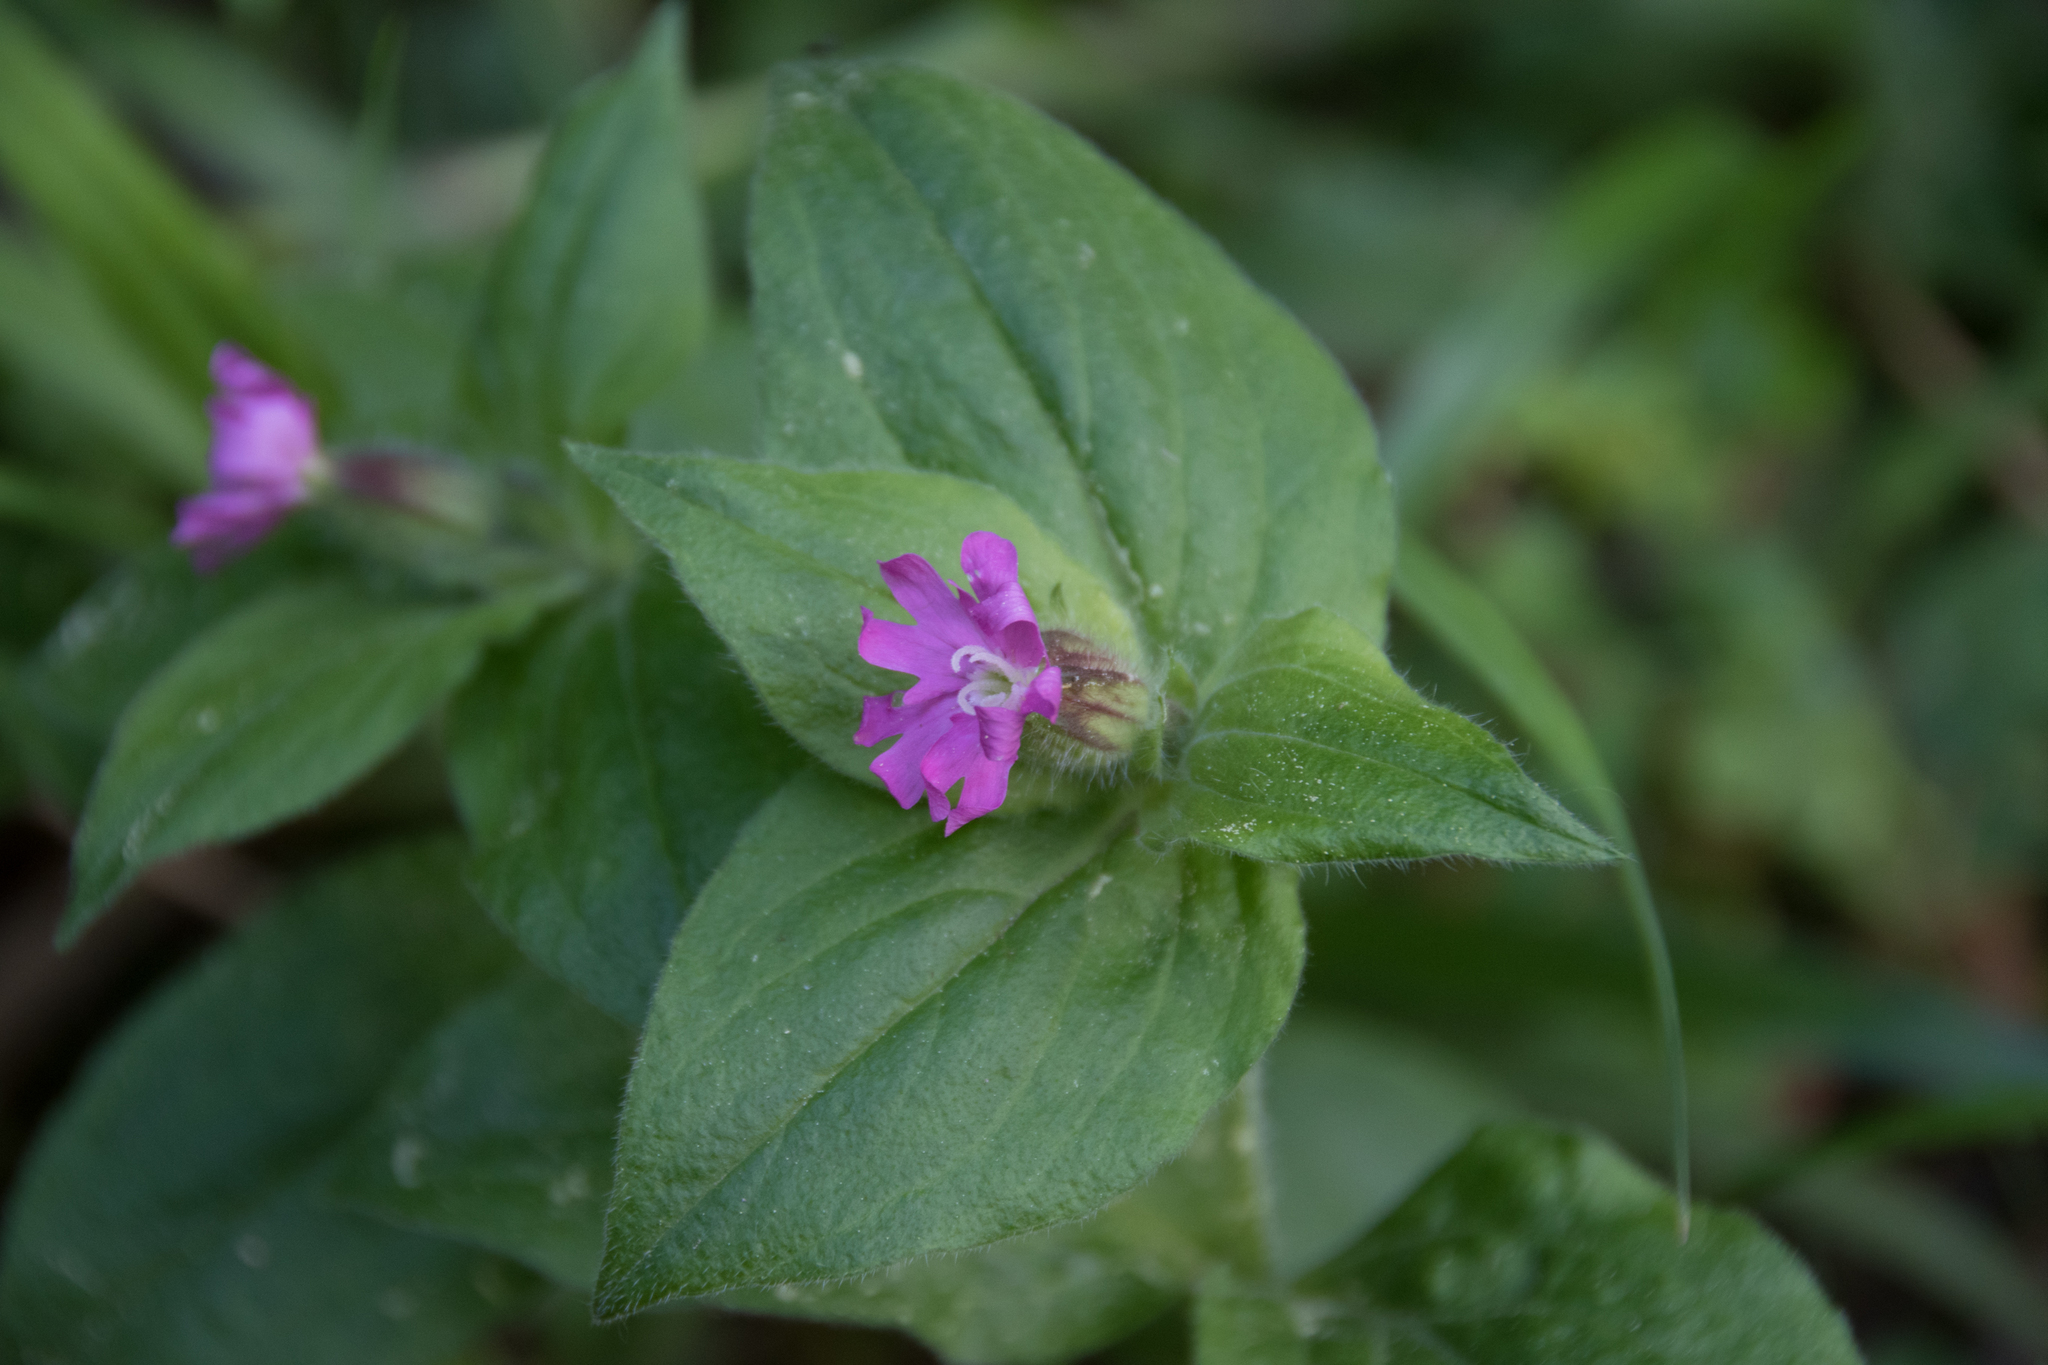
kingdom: Plantae
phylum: Tracheophyta
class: Magnoliopsida
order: Caryophyllales
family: Caryophyllaceae
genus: Silene
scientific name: Silene dioica
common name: Red campion
